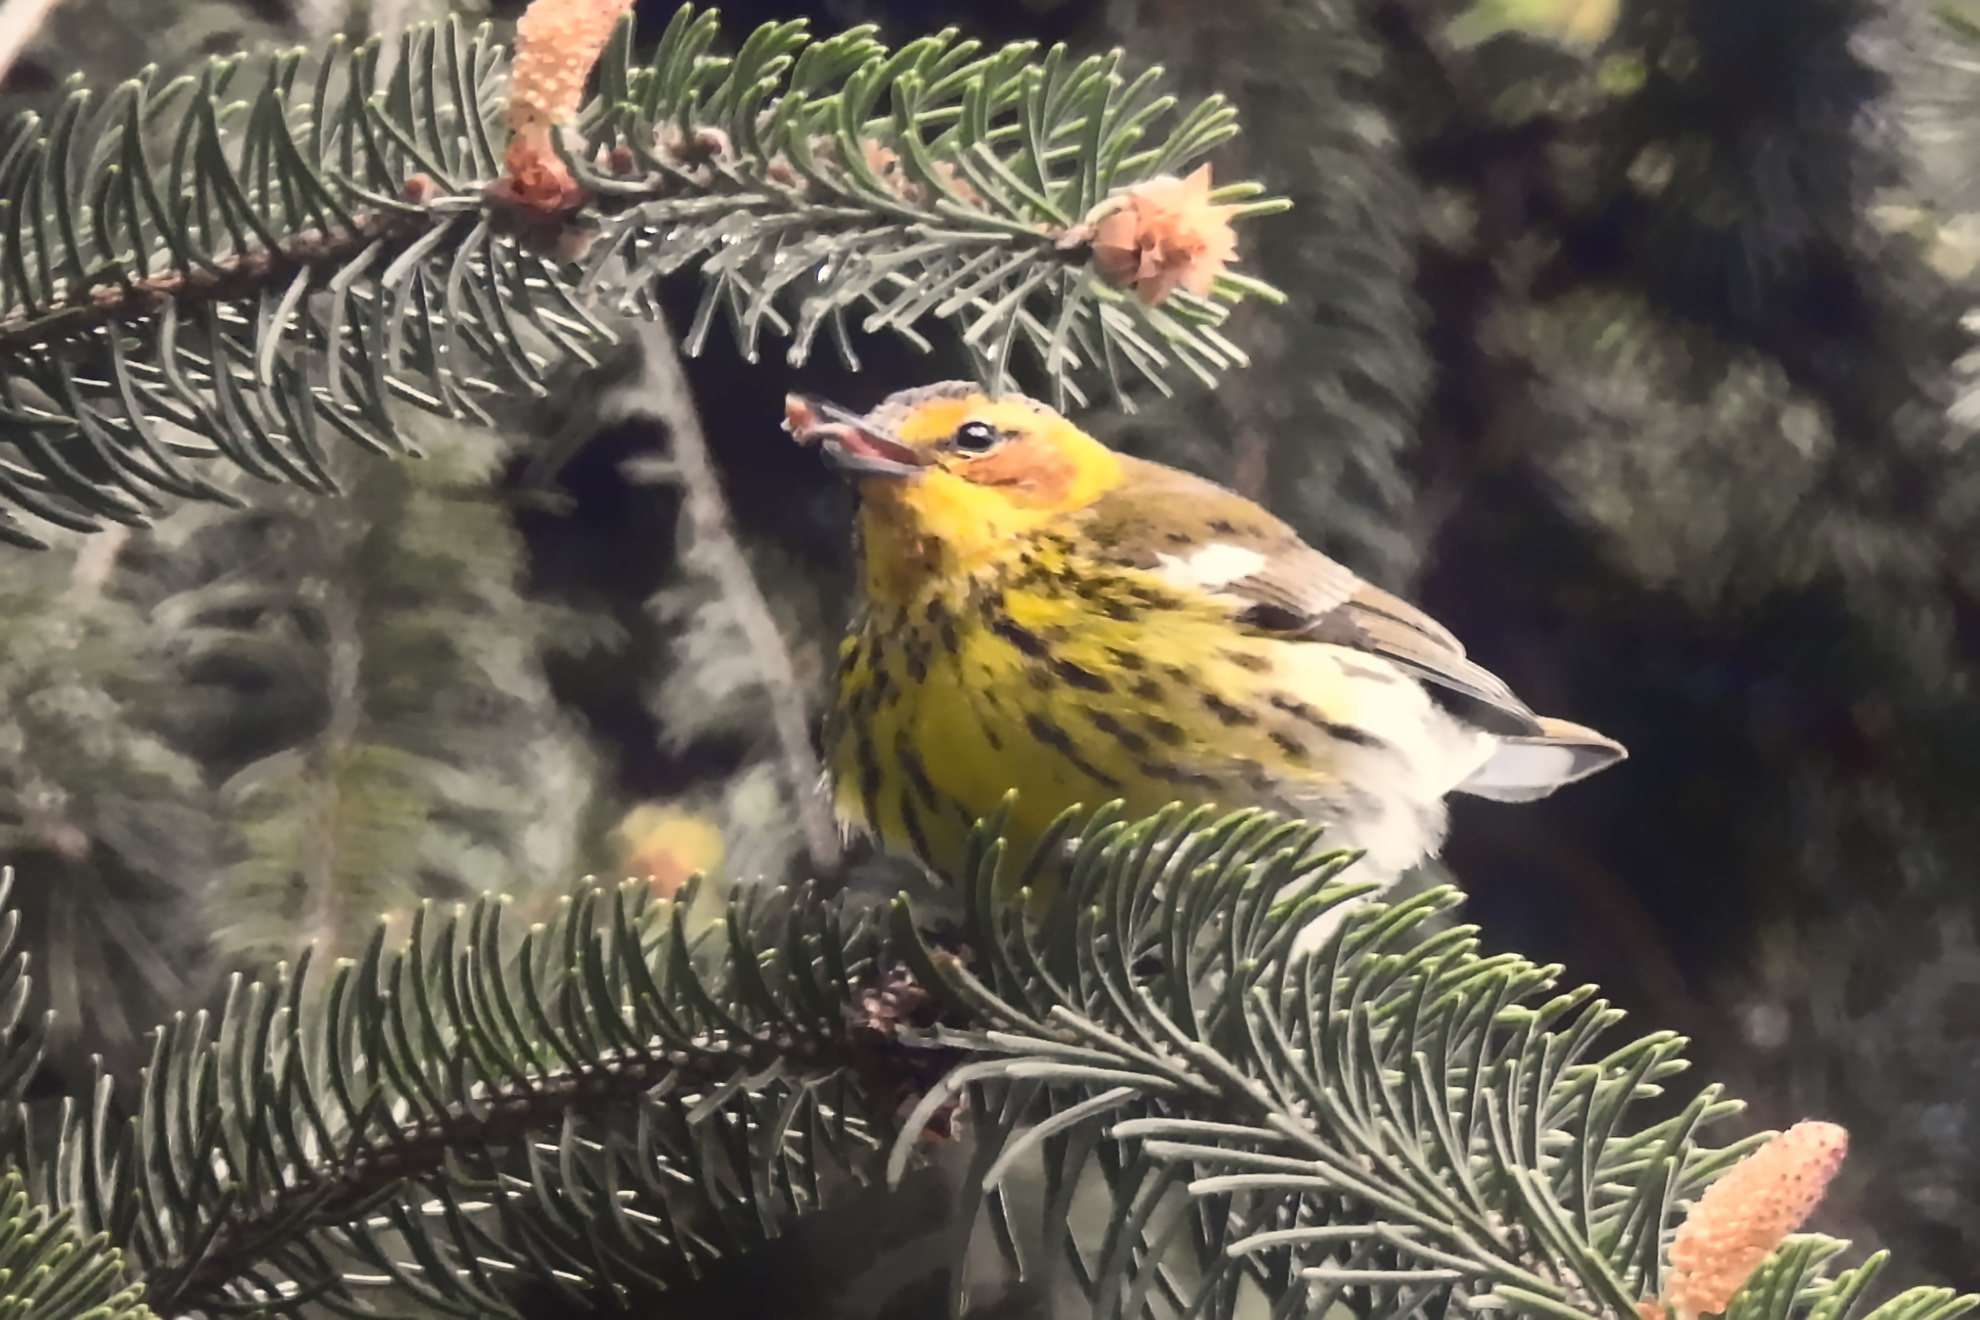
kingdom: Animalia
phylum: Chordata
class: Aves
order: Passeriformes
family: Parulidae
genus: Setophaga
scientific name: Setophaga tigrina
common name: Cape may warbler
